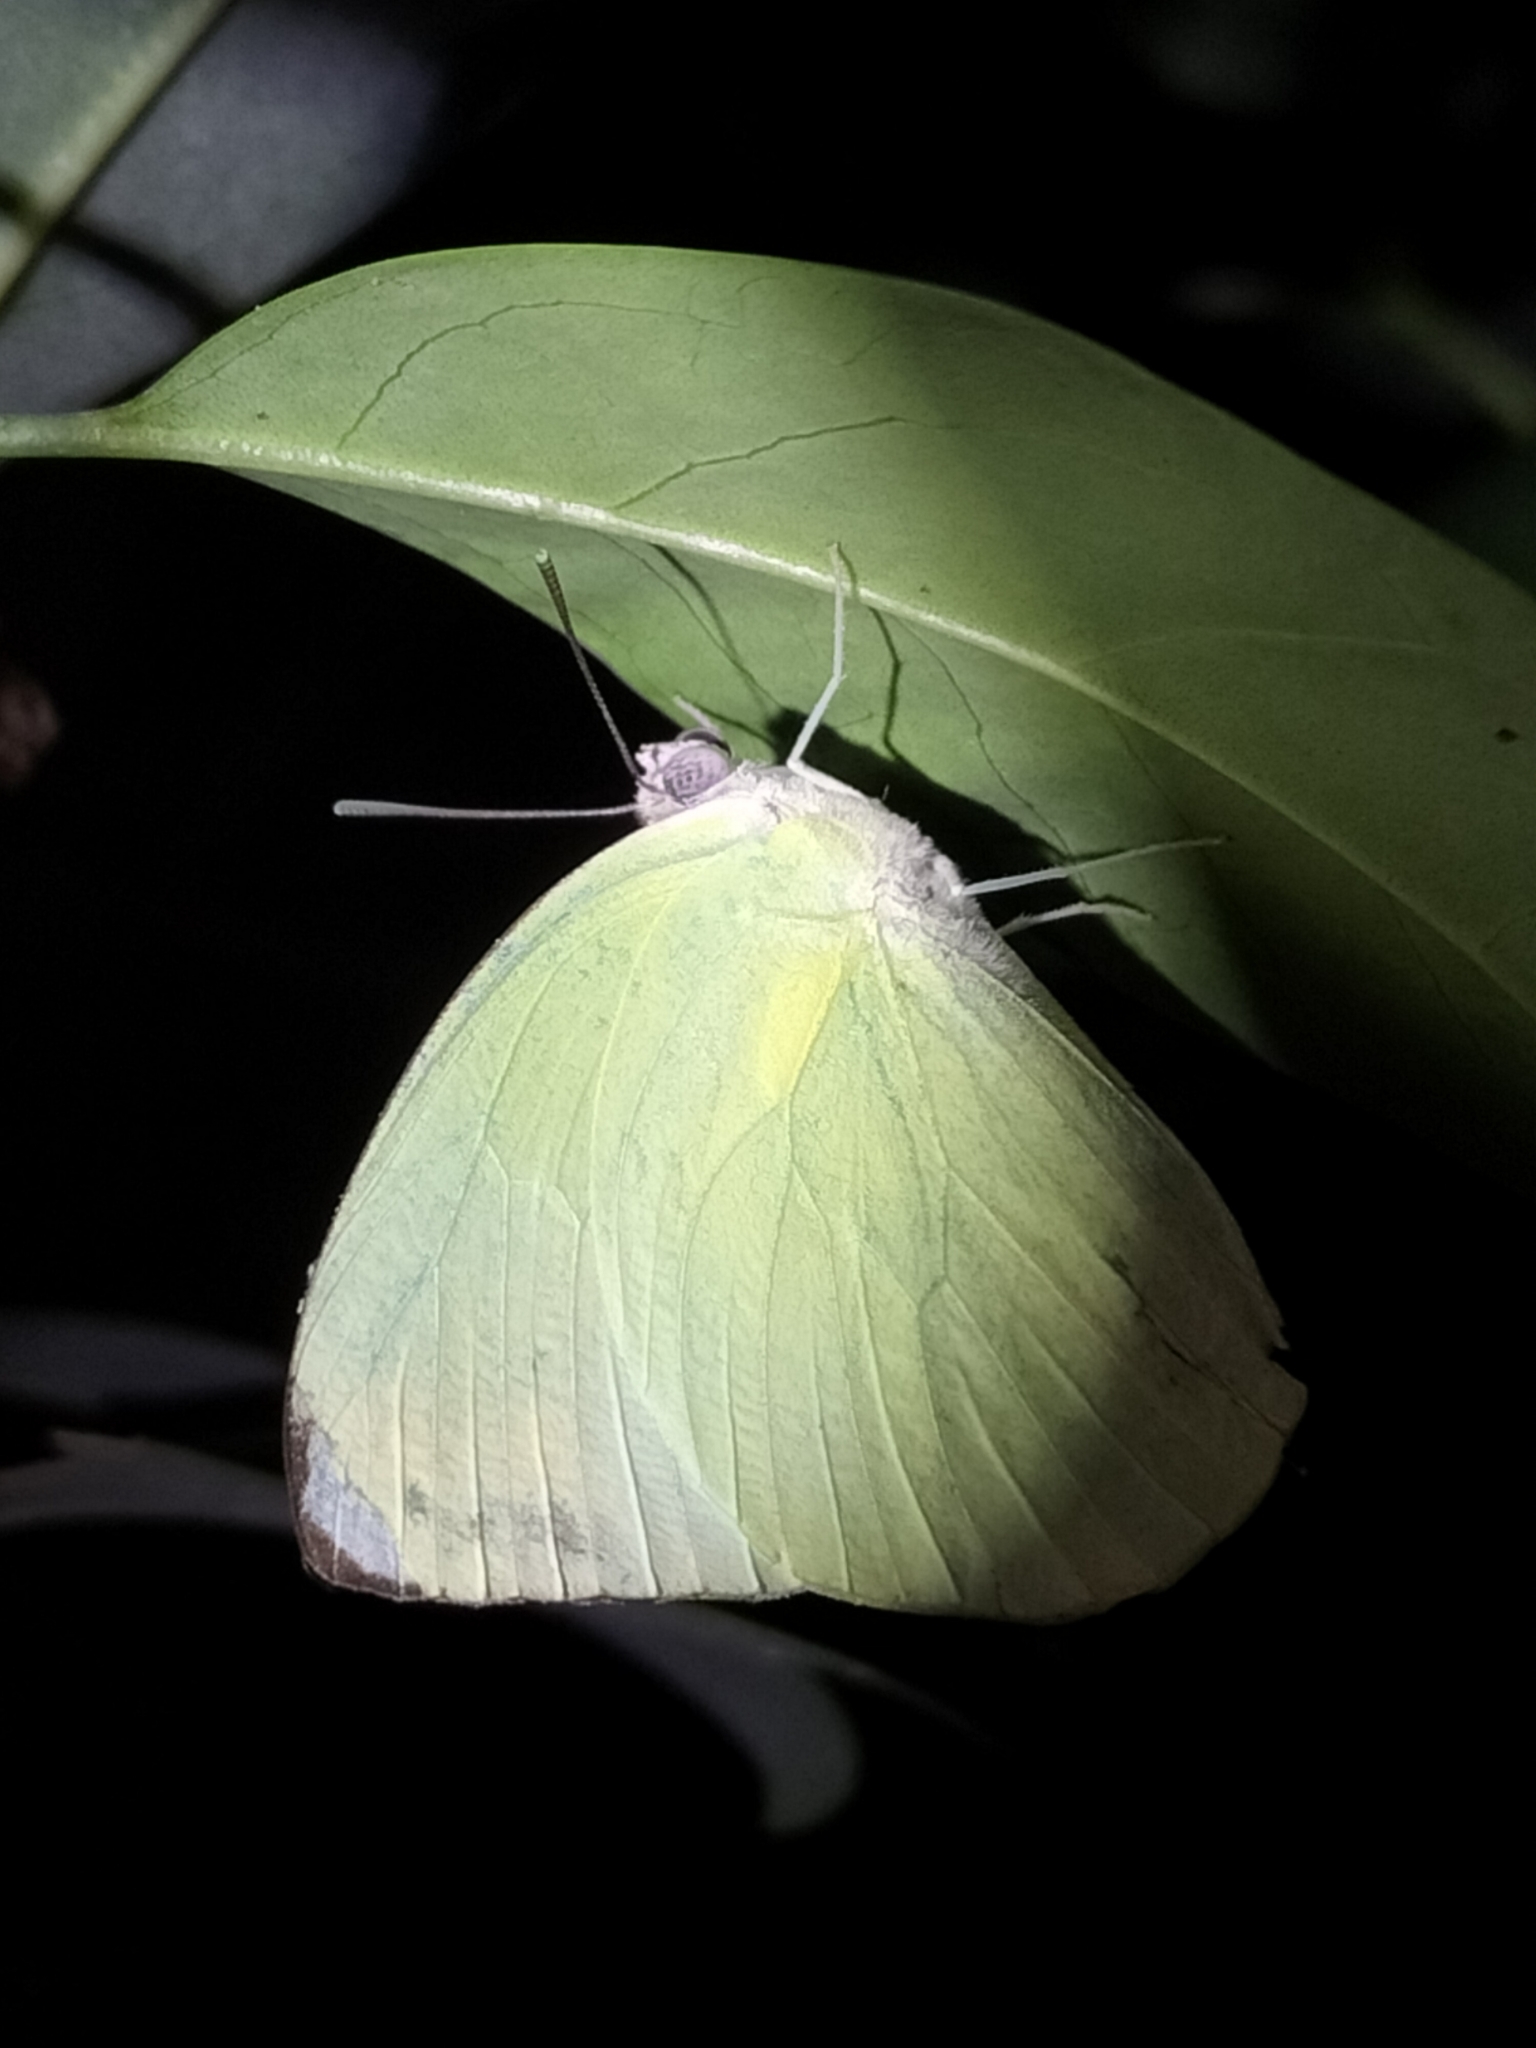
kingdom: Animalia
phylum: Arthropoda
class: Insecta
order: Lepidoptera
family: Pieridae
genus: Catopsilia
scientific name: Catopsilia pomona
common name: Common emigrant
